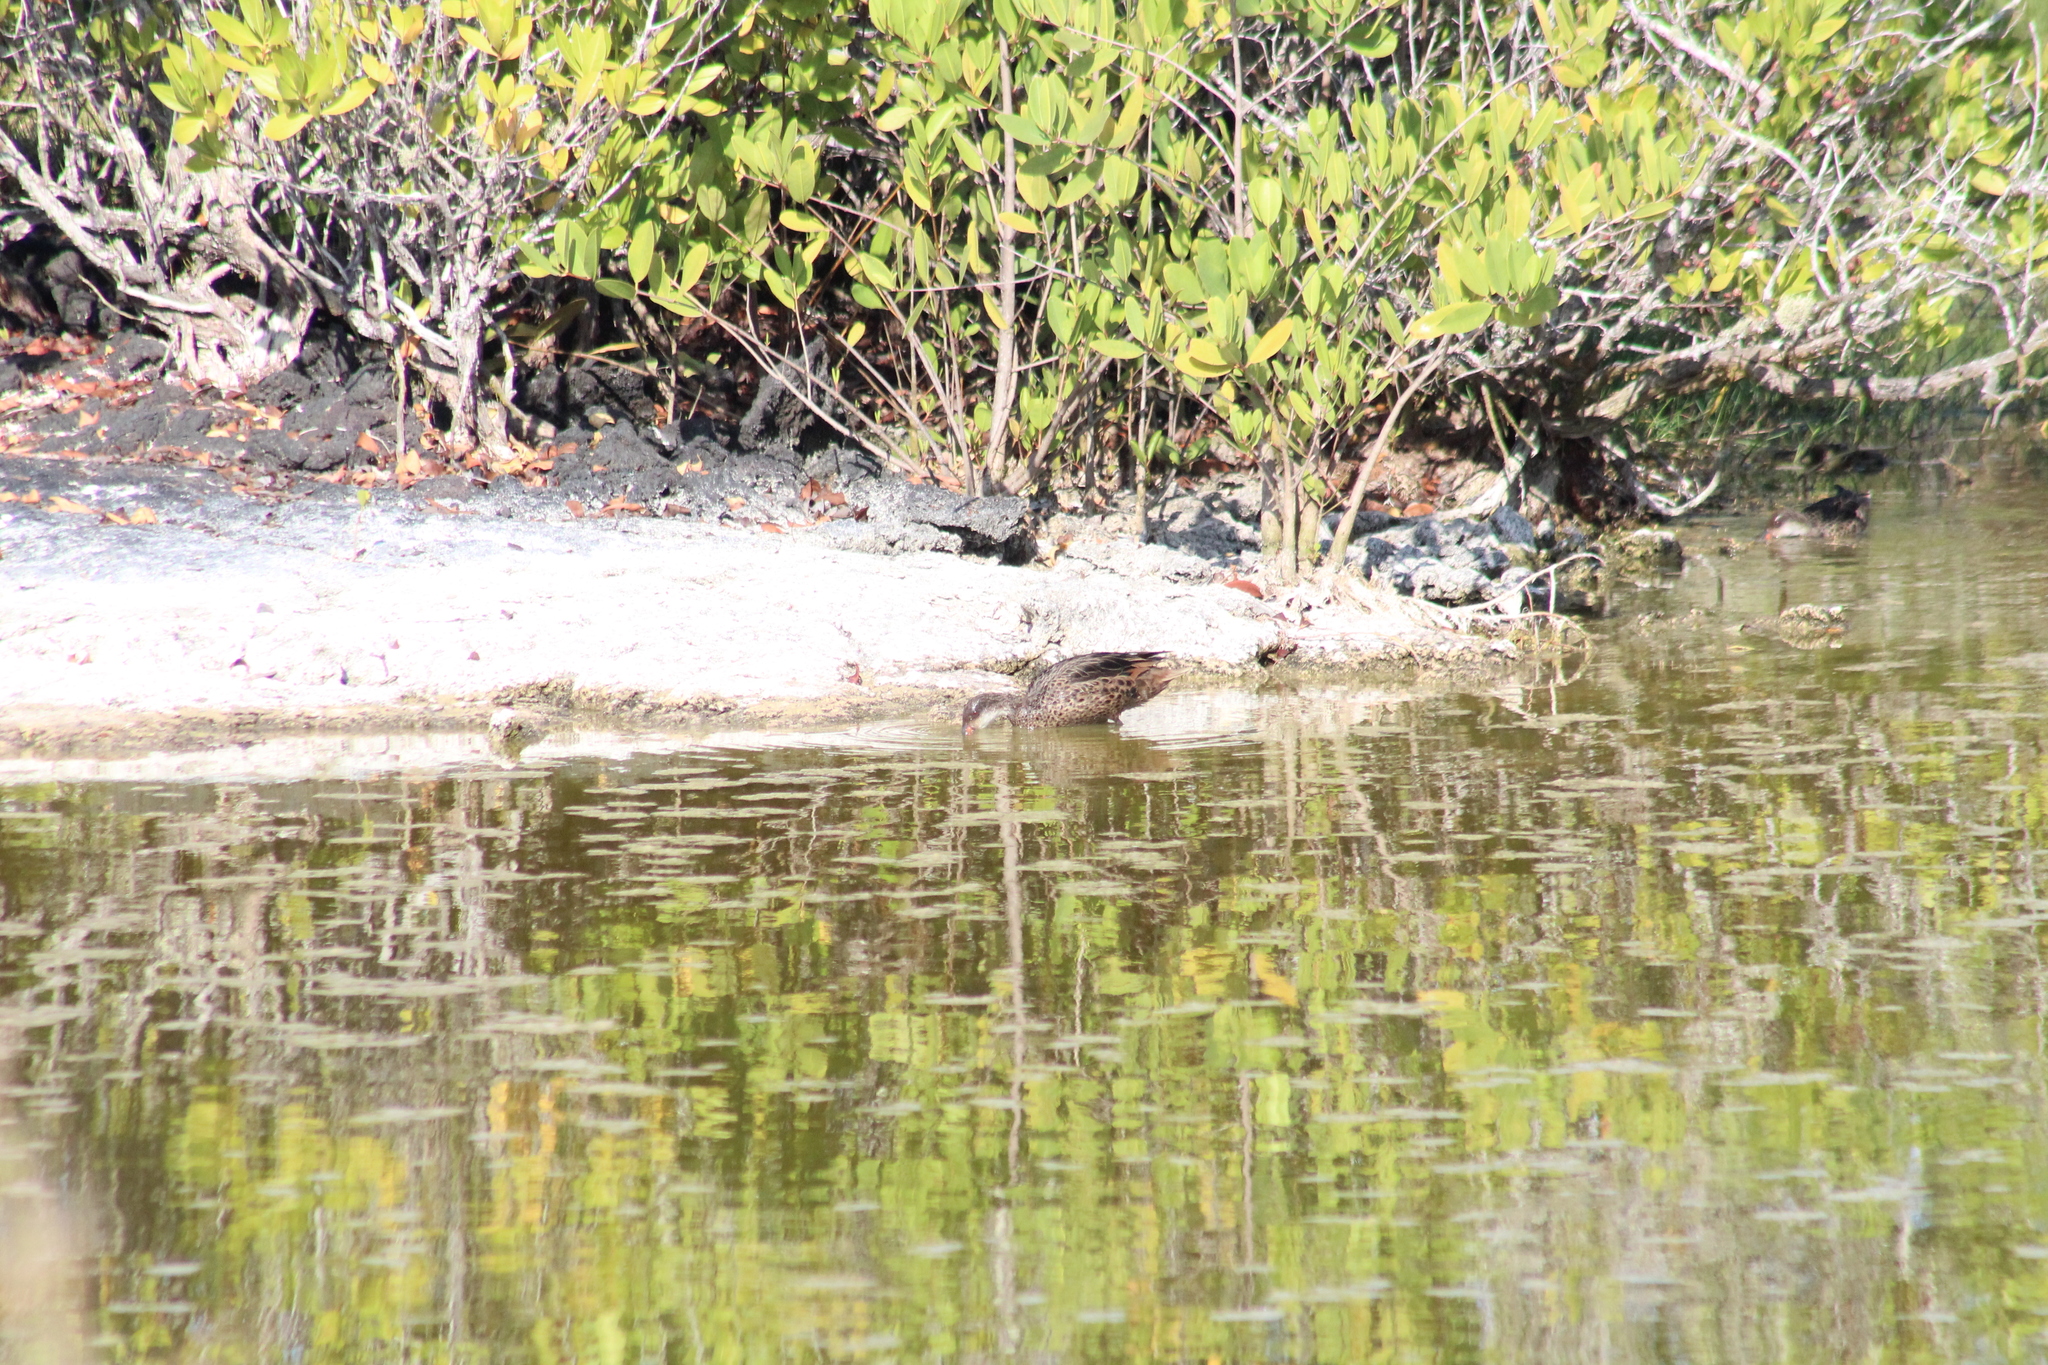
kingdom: Animalia
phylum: Chordata
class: Aves
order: Anseriformes
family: Anatidae
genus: Anas
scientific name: Anas bahamensis
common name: White-cheeked pintail
